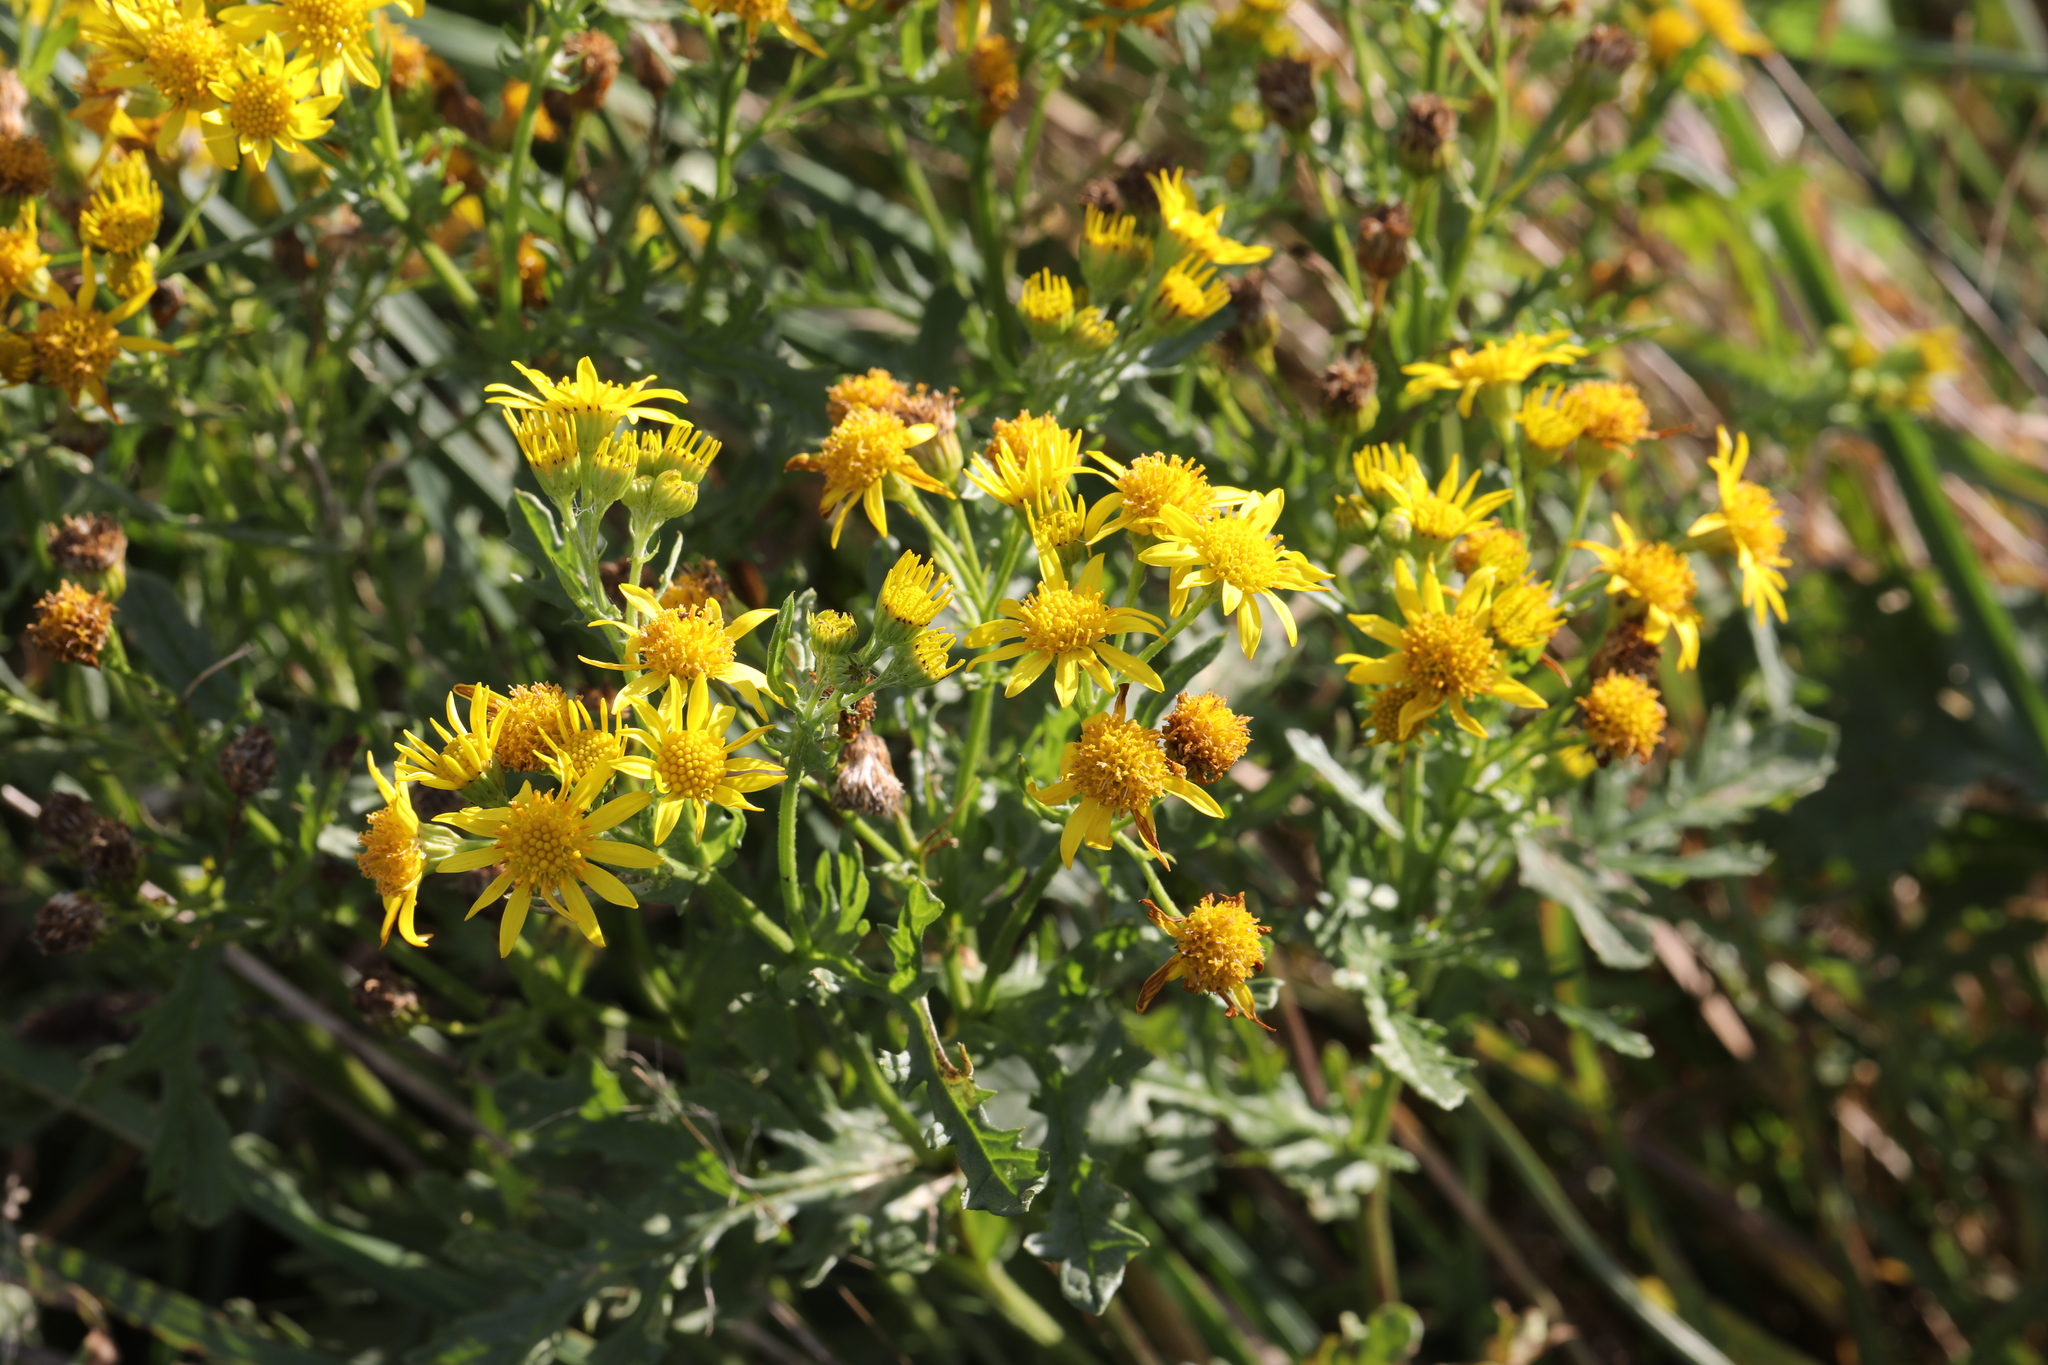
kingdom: Plantae
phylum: Tracheophyta
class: Magnoliopsida
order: Asterales
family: Asteraceae
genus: Jacobaea
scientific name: Jacobaea vulgaris
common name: Stinking willie
